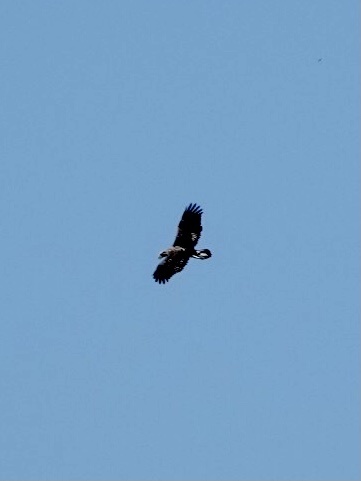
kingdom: Animalia
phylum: Chordata
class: Aves
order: Accipitriformes
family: Accipitridae
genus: Haliaeetus
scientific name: Haliaeetus leucocephalus
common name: Bald eagle
